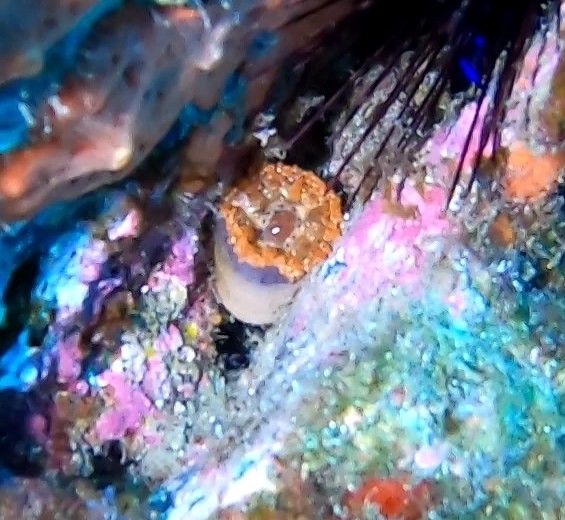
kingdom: Animalia
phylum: Cnidaria
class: Anthozoa
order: Actiniaria
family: Andvakiidae
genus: Telmatactis
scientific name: Telmatactis cricoides
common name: Blunt-tentacled anemone
